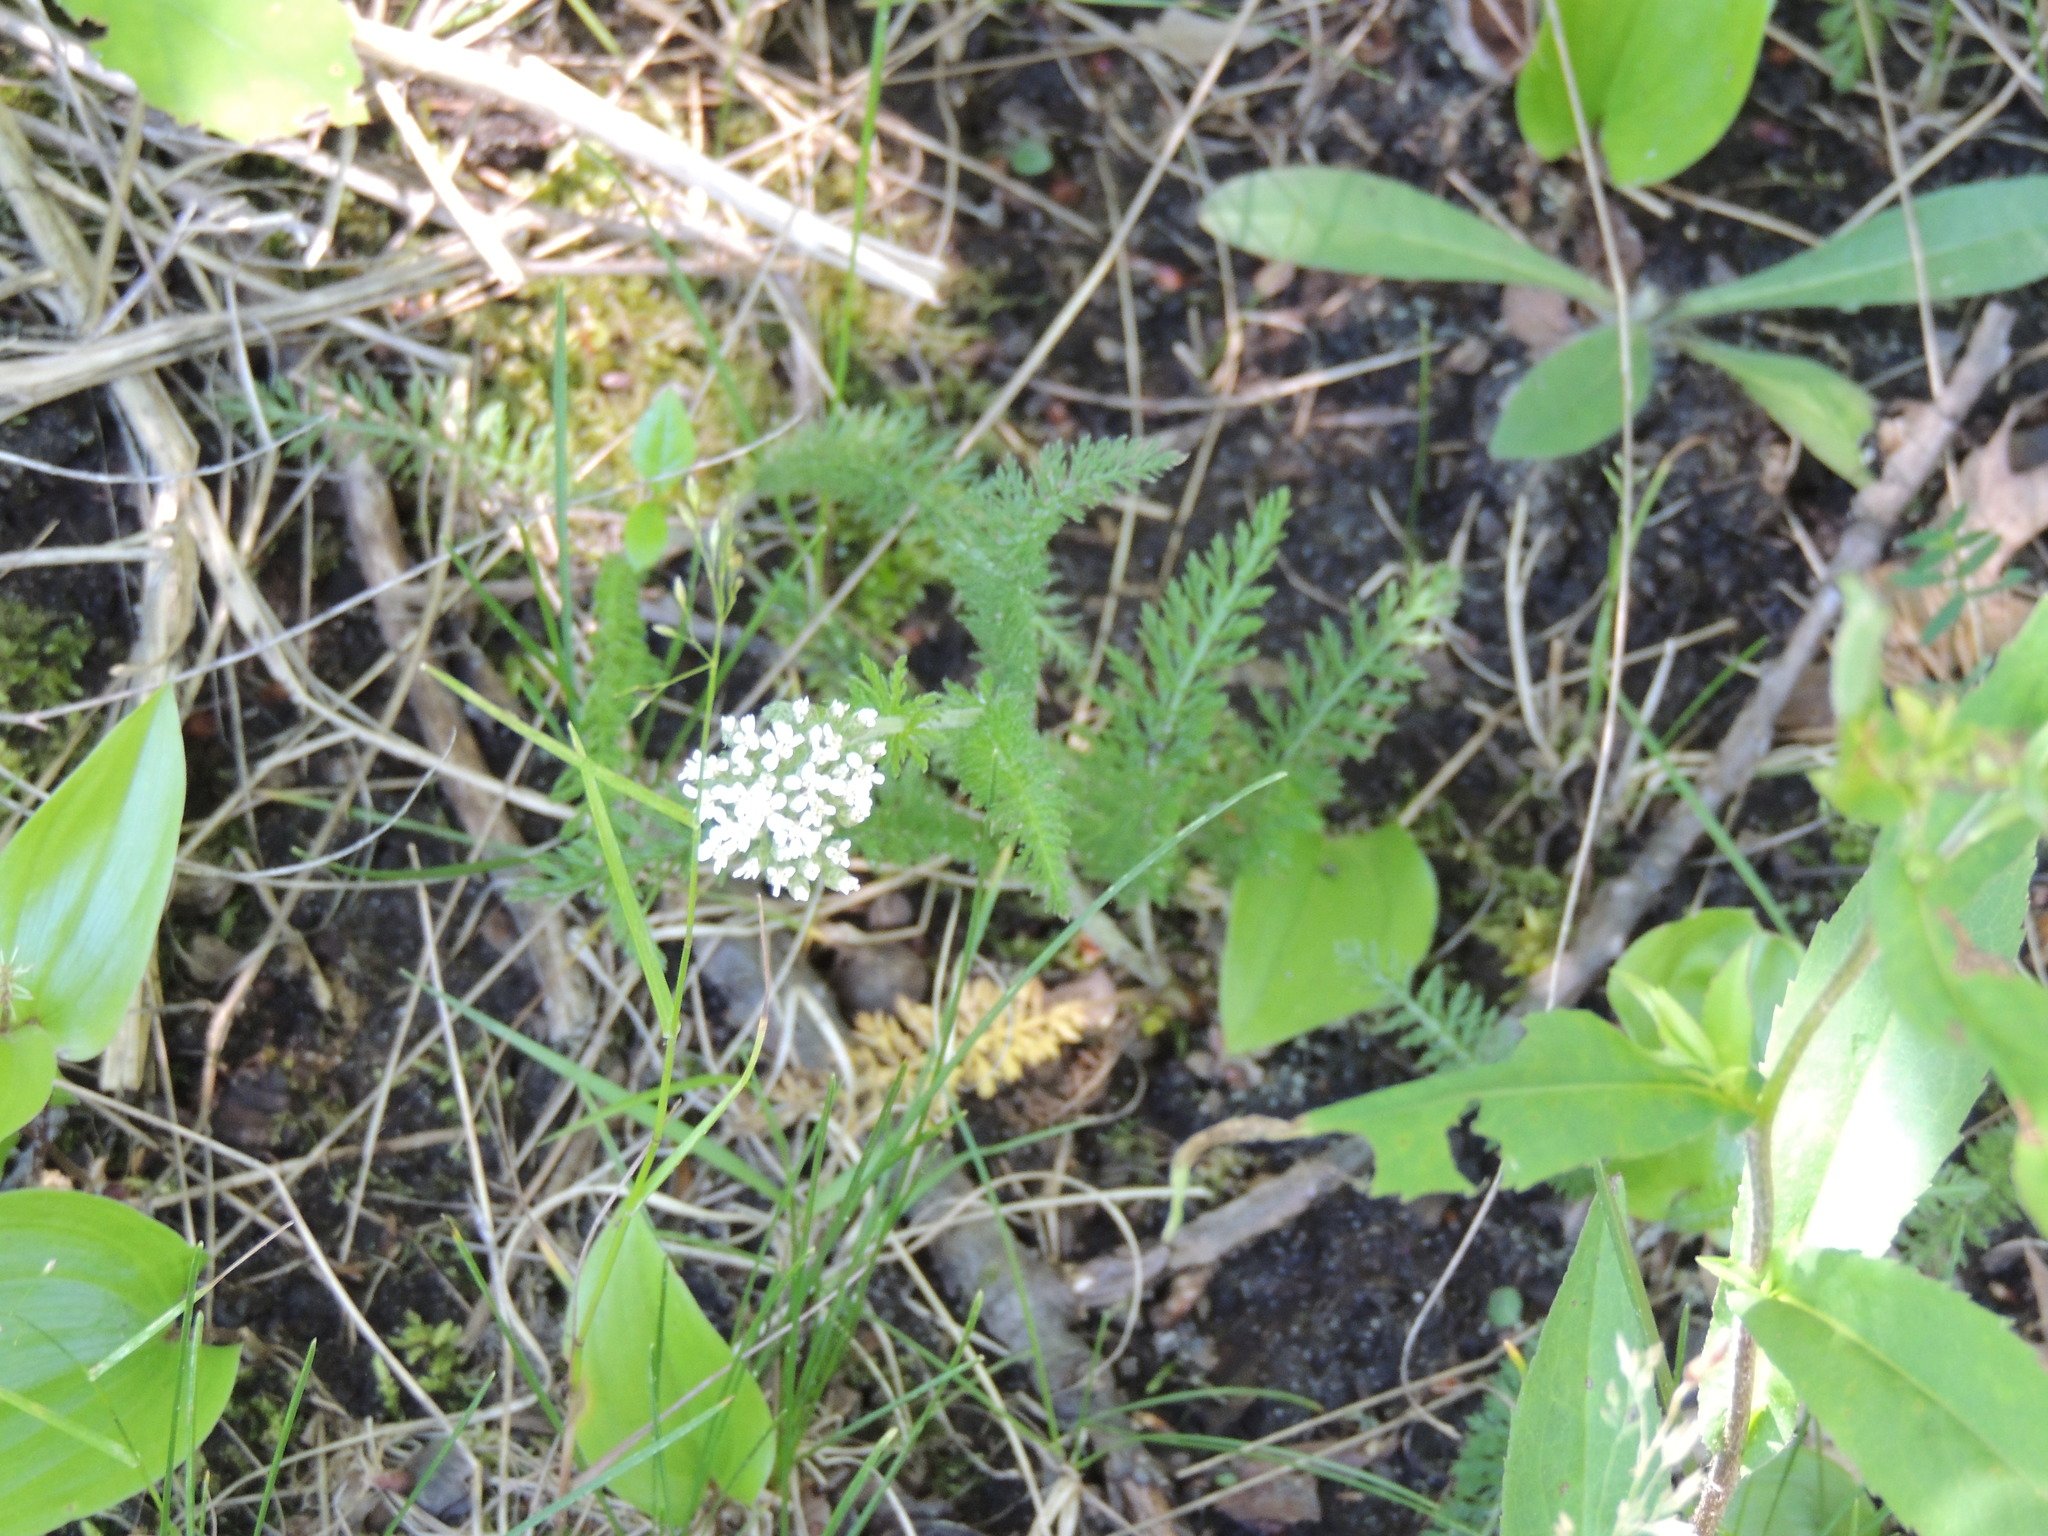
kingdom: Plantae
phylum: Tracheophyta
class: Magnoliopsida
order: Asterales
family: Asteraceae
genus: Achillea
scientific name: Achillea millefolium
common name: Yarrow
